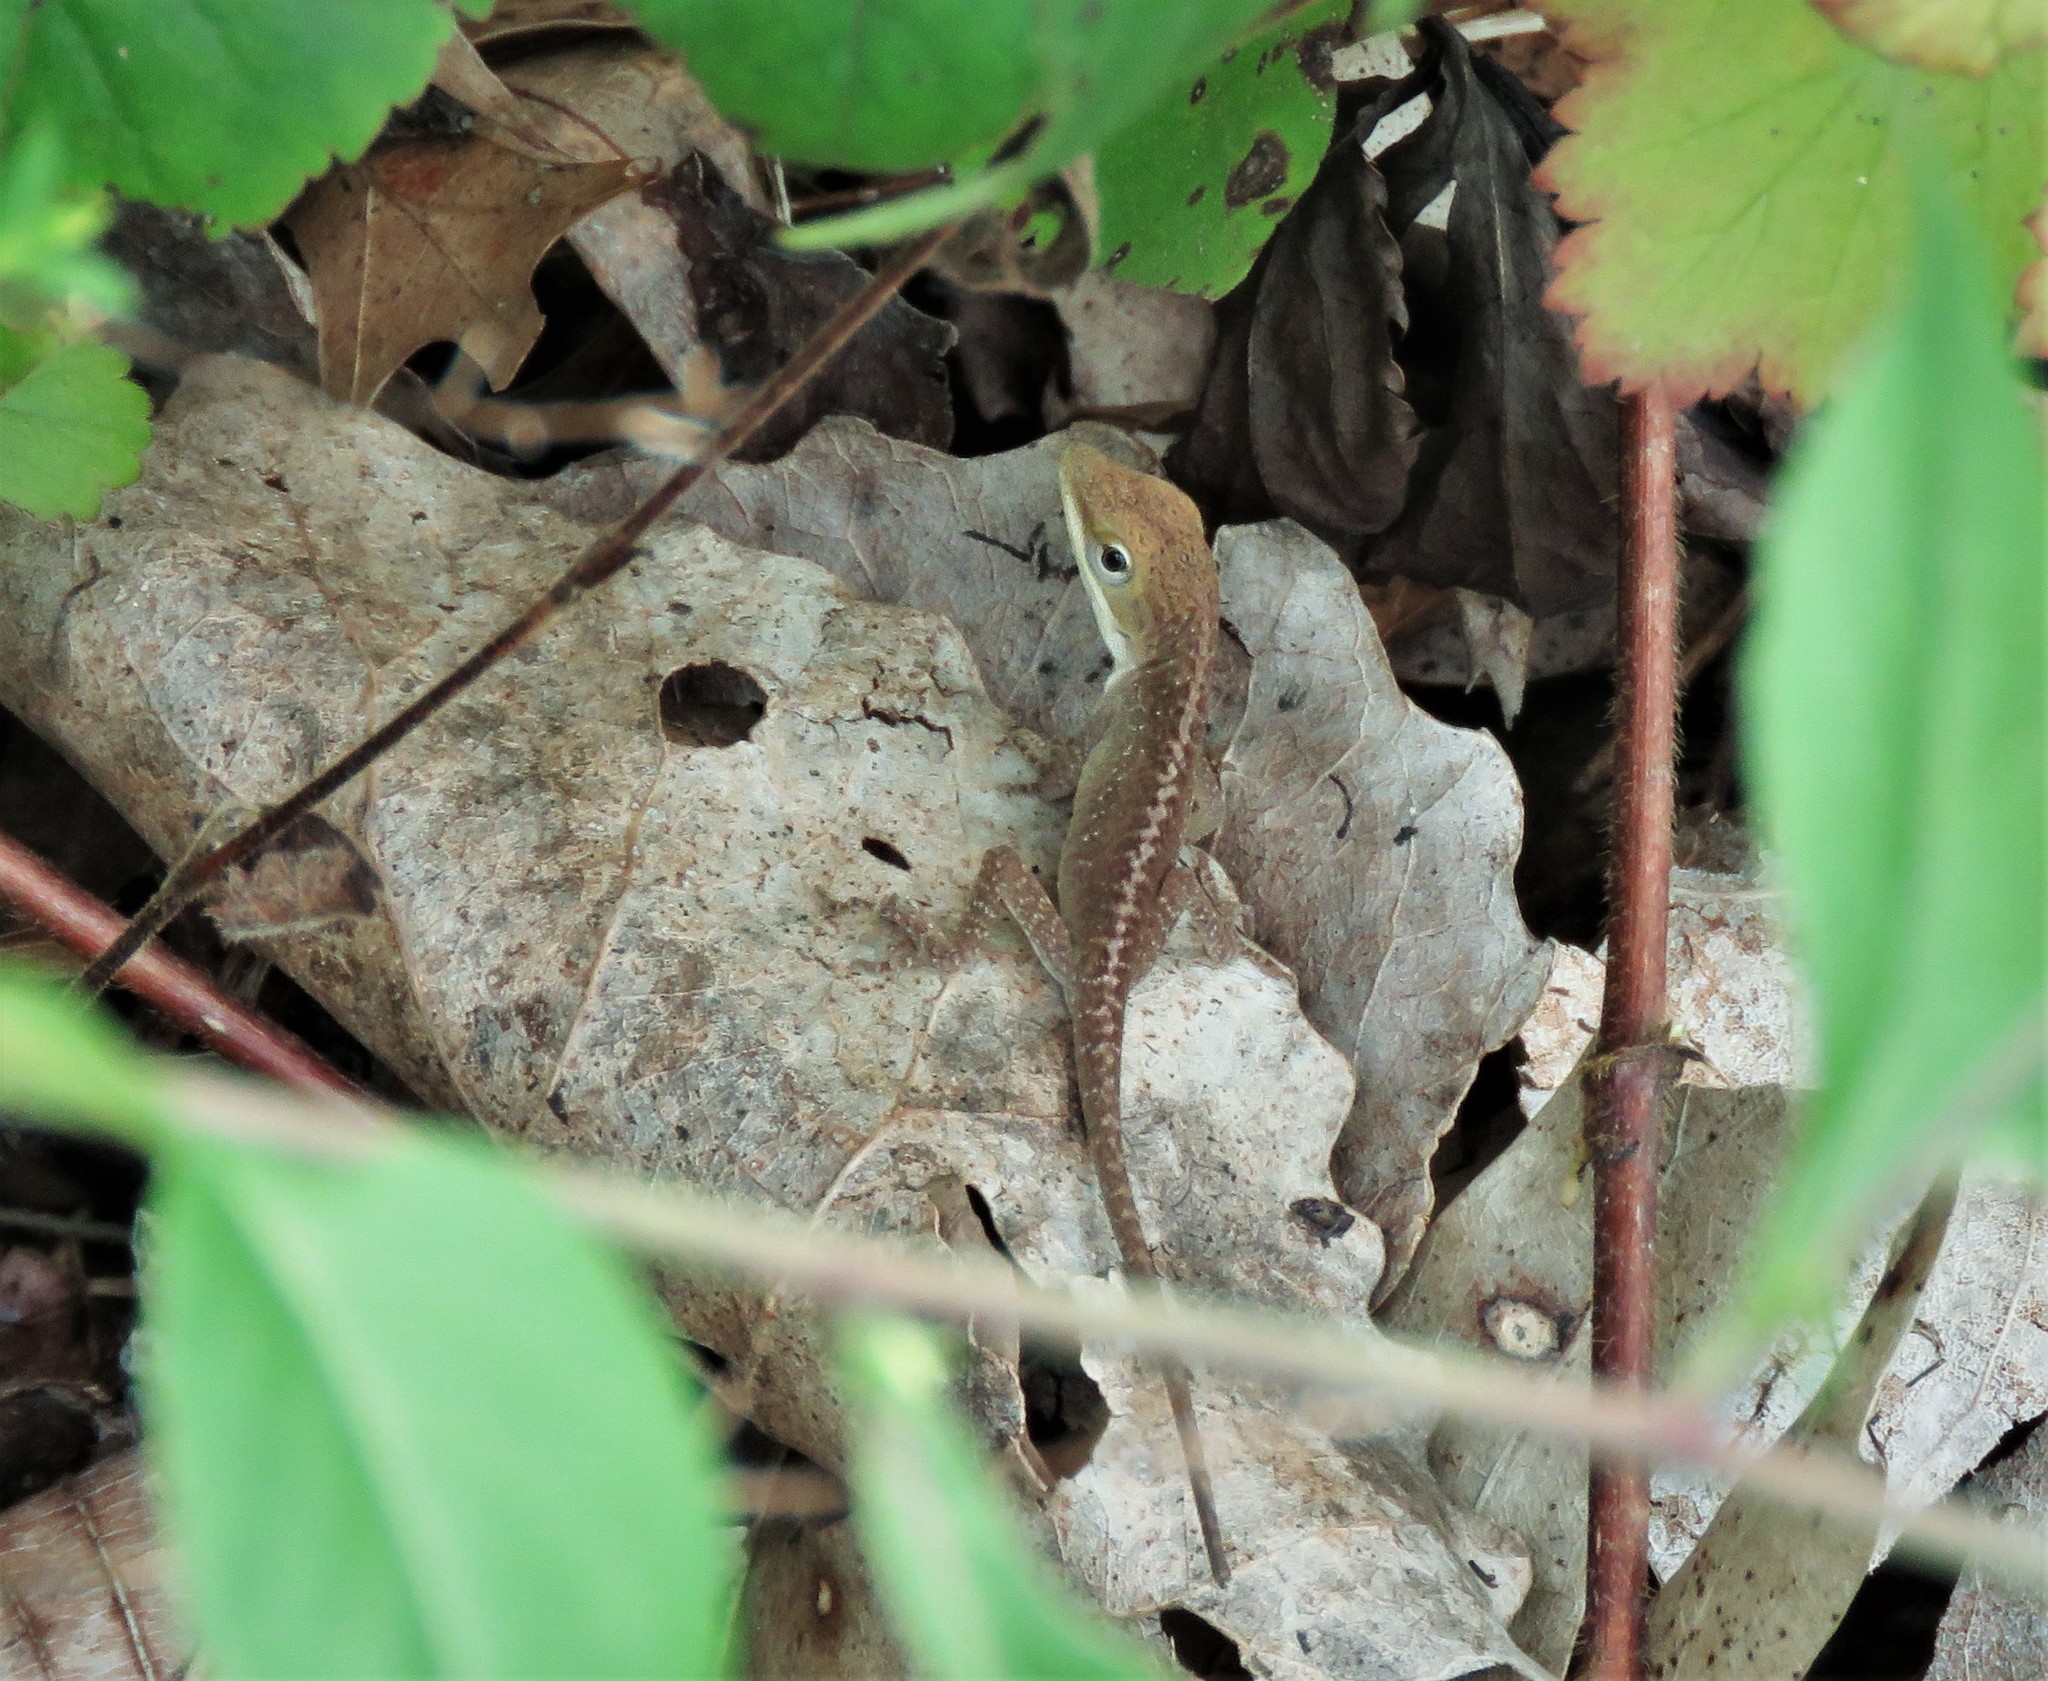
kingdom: Animalia
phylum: Chordata
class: Squamata
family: Dactyloidae
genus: Anolis
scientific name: Anolis carolinensis
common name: Green anole
